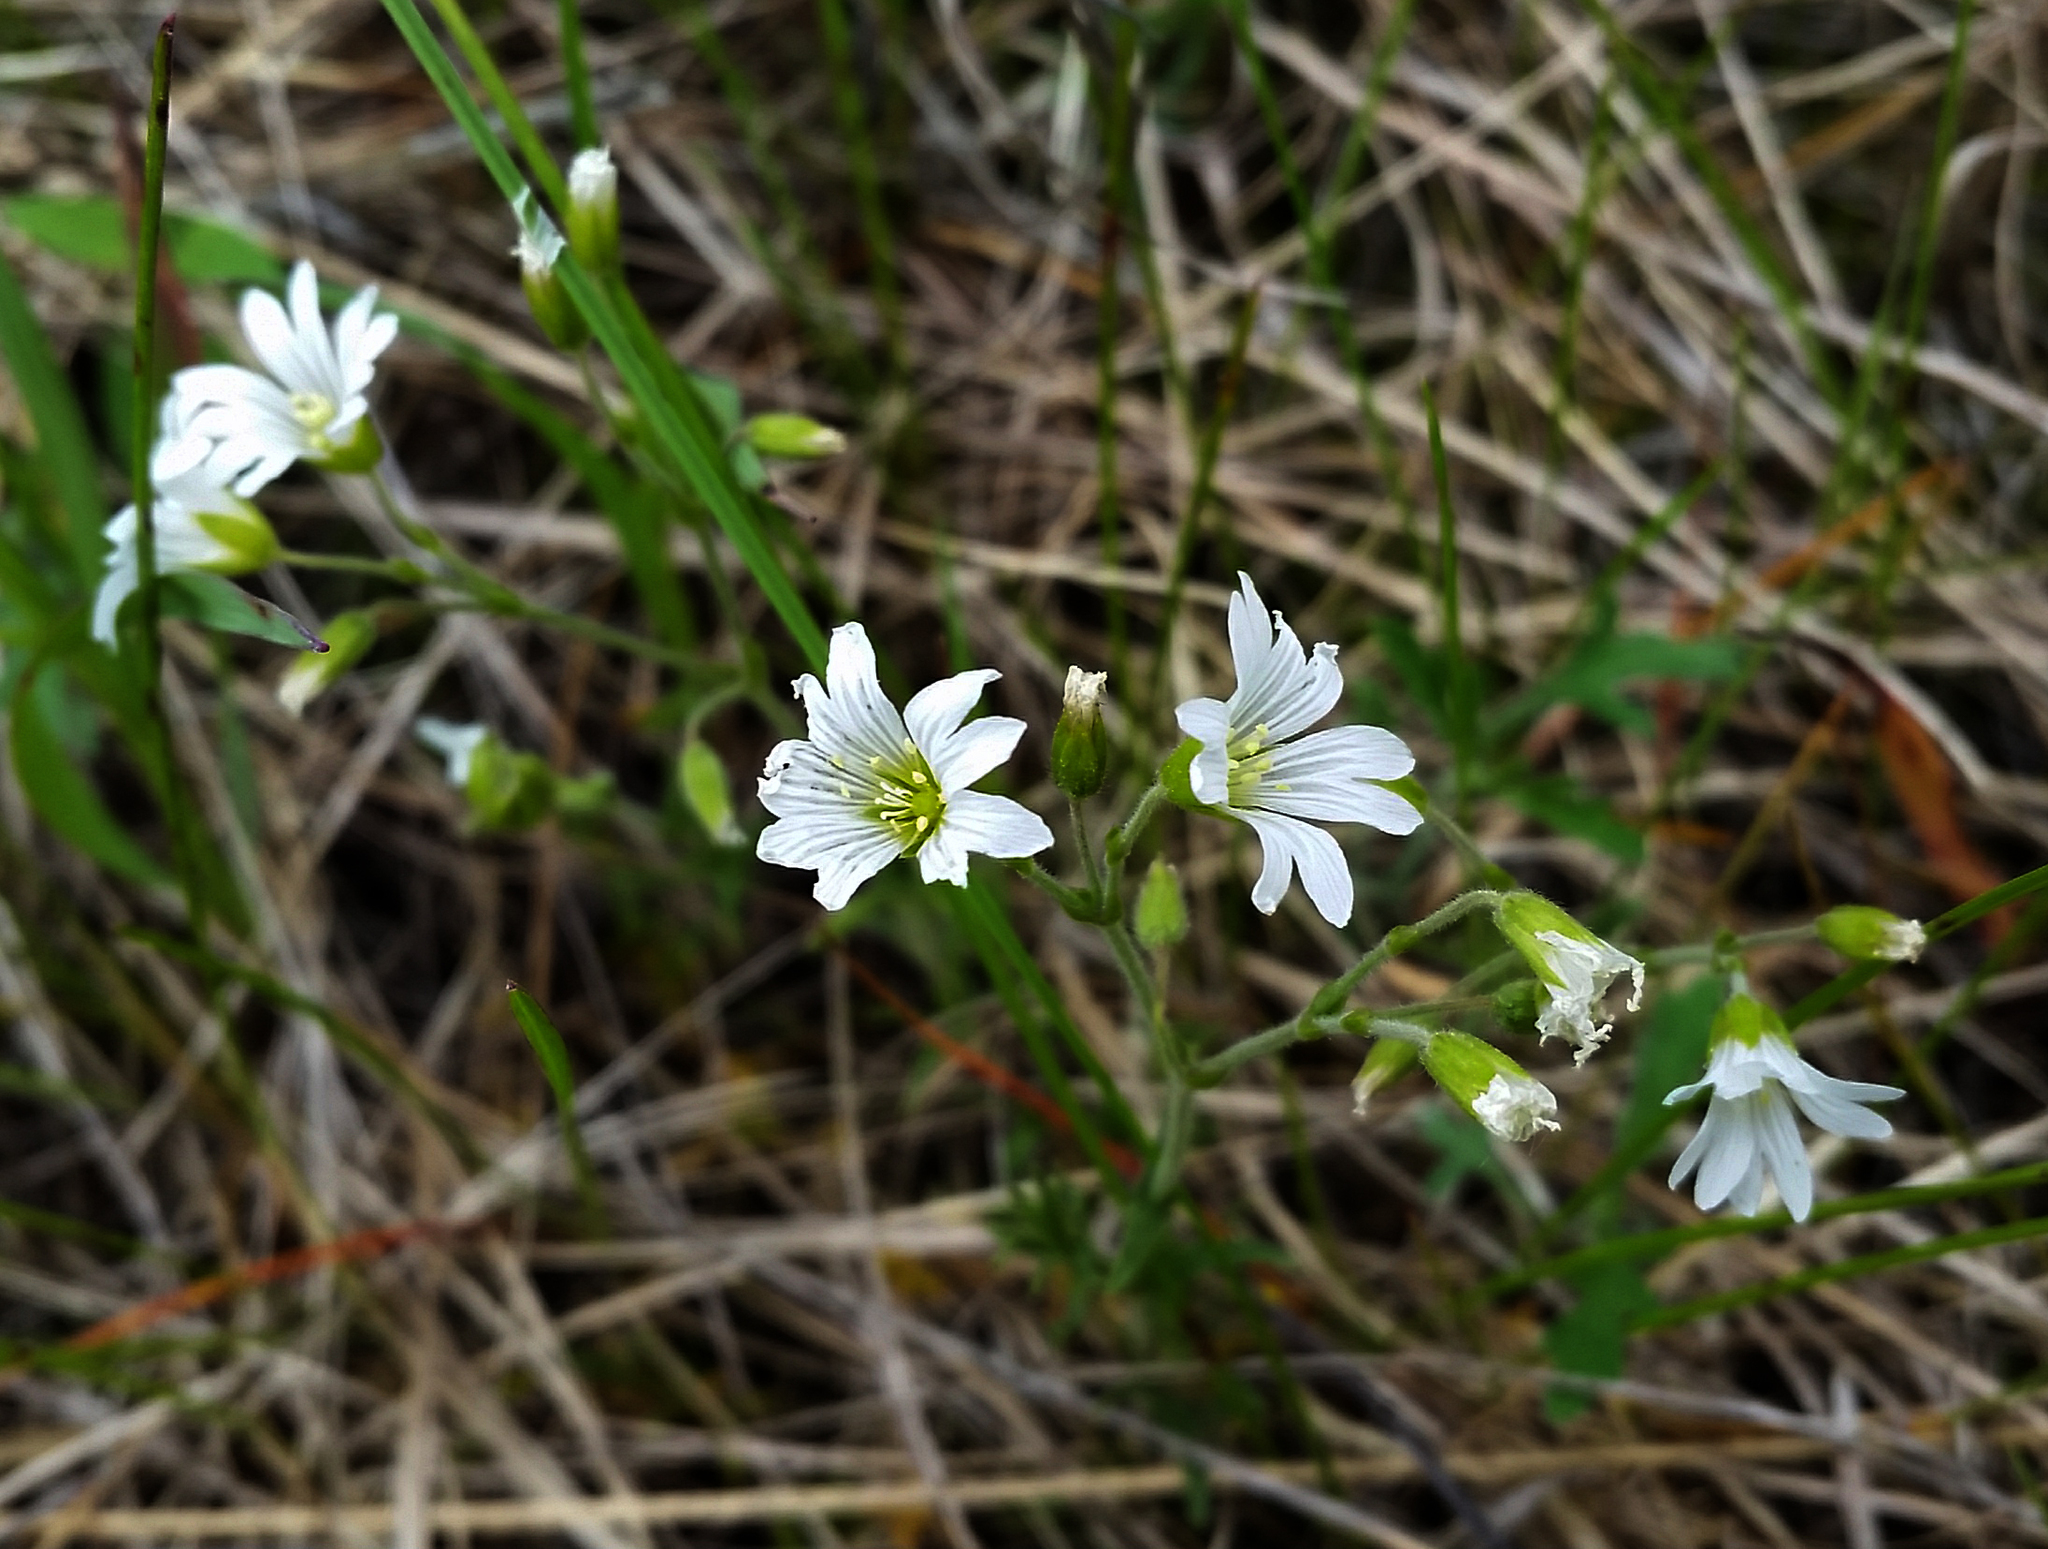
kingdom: Plantae
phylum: Tracheophyta
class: Magnoliopsida
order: Caryophyllales
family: Caryophyllaceae
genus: Cerastium
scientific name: Cerastium arvense
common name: Field mouse-ear
